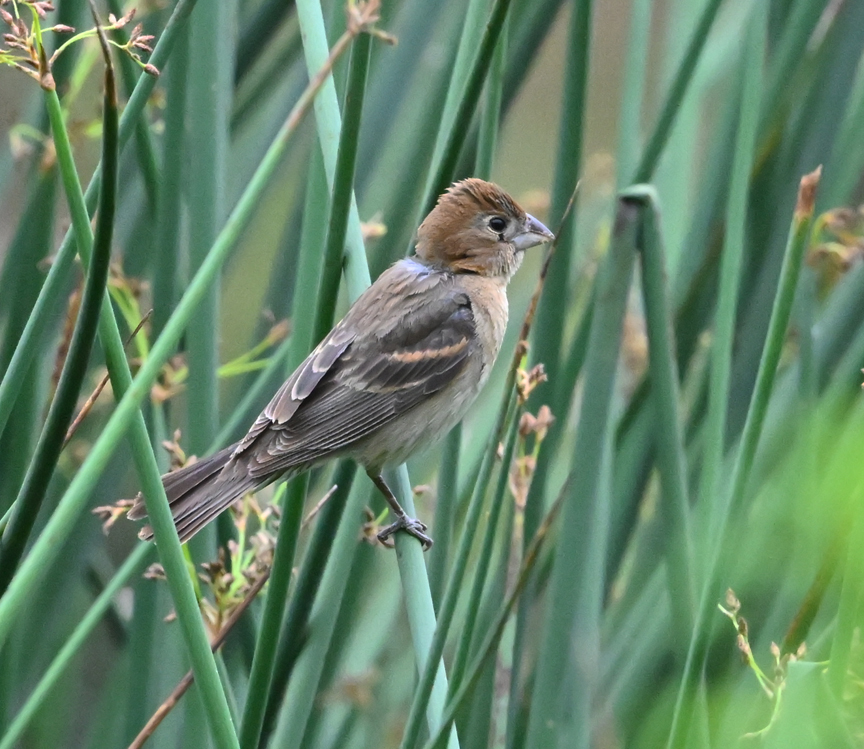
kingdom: Animalia
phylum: Chordata
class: Aves
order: Passeriformes
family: Cardinalidae
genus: Passerina
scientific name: Passerina caerulea
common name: Blue grosbeak
